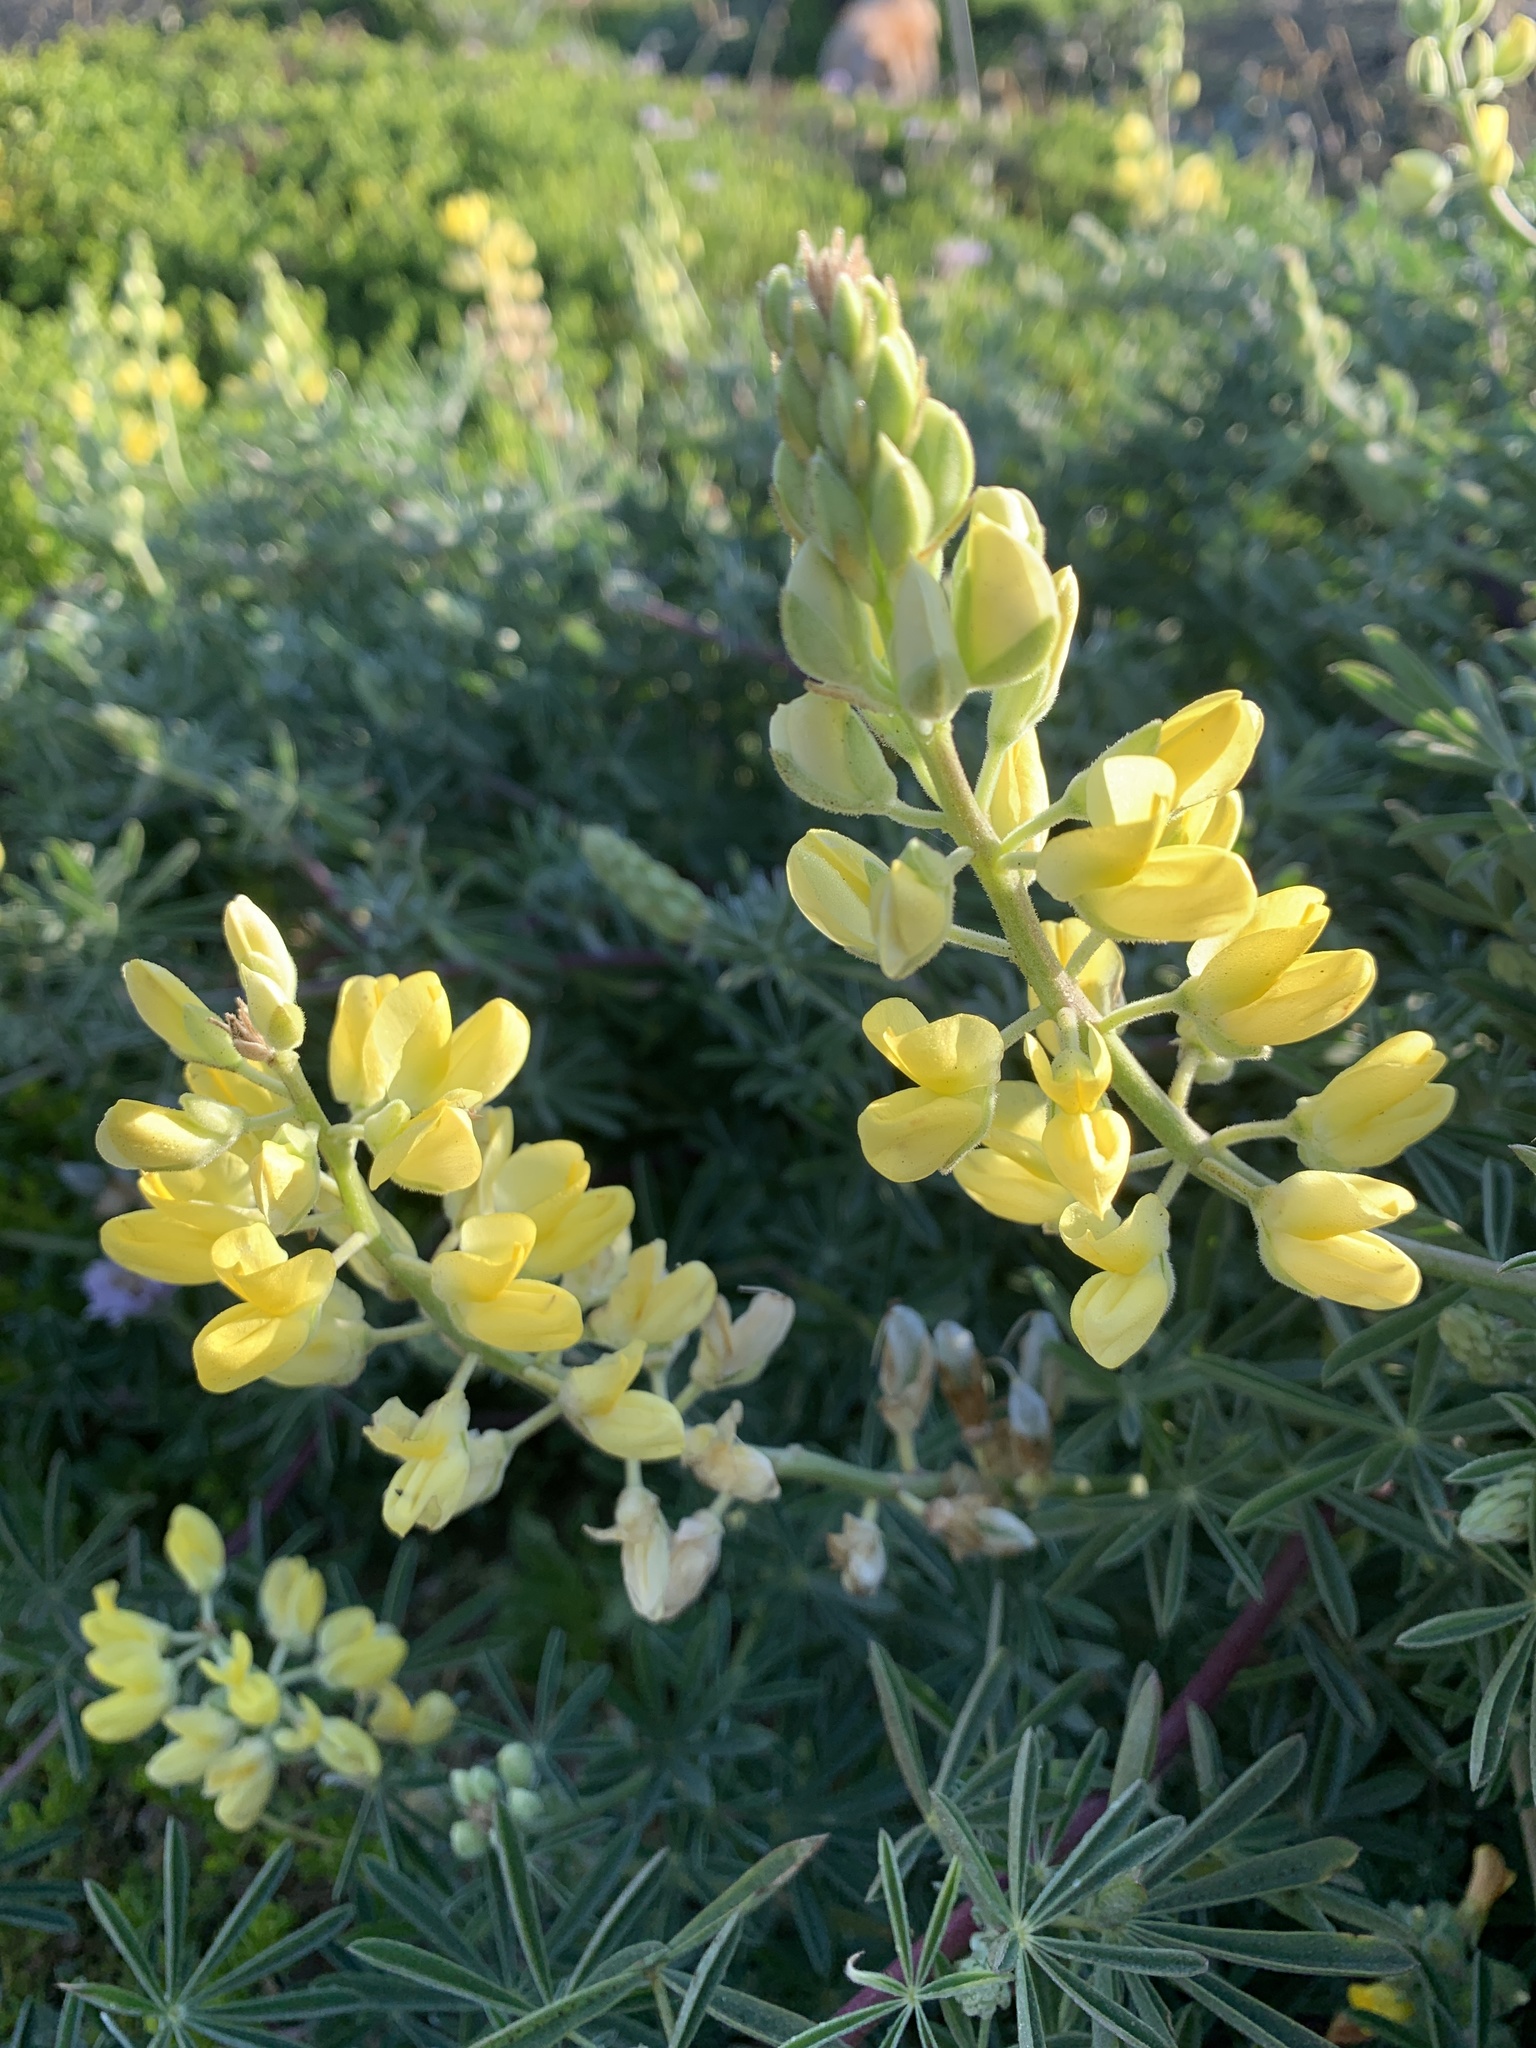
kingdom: Plantae
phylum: Tracheophyta
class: Magnoliopsida
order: Fabales
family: Fabaceae
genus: Lupinus
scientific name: Lupinus arboreus
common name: Yellow bush lupine
